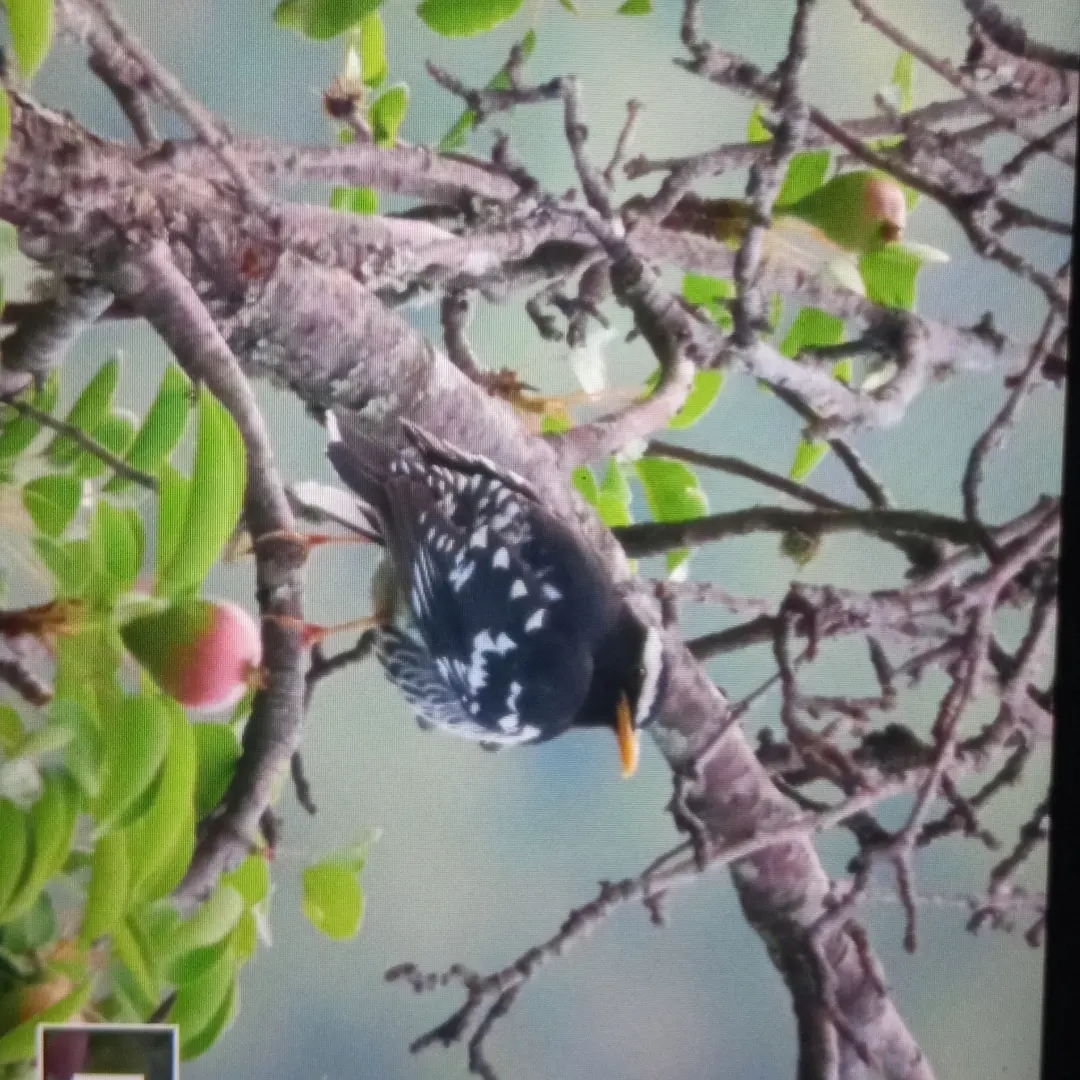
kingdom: Animalia
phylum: Chordata
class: Aves
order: Passeriformes
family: Turdidae
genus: Geokichla
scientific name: Geokichla wardii
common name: Pied thrush
